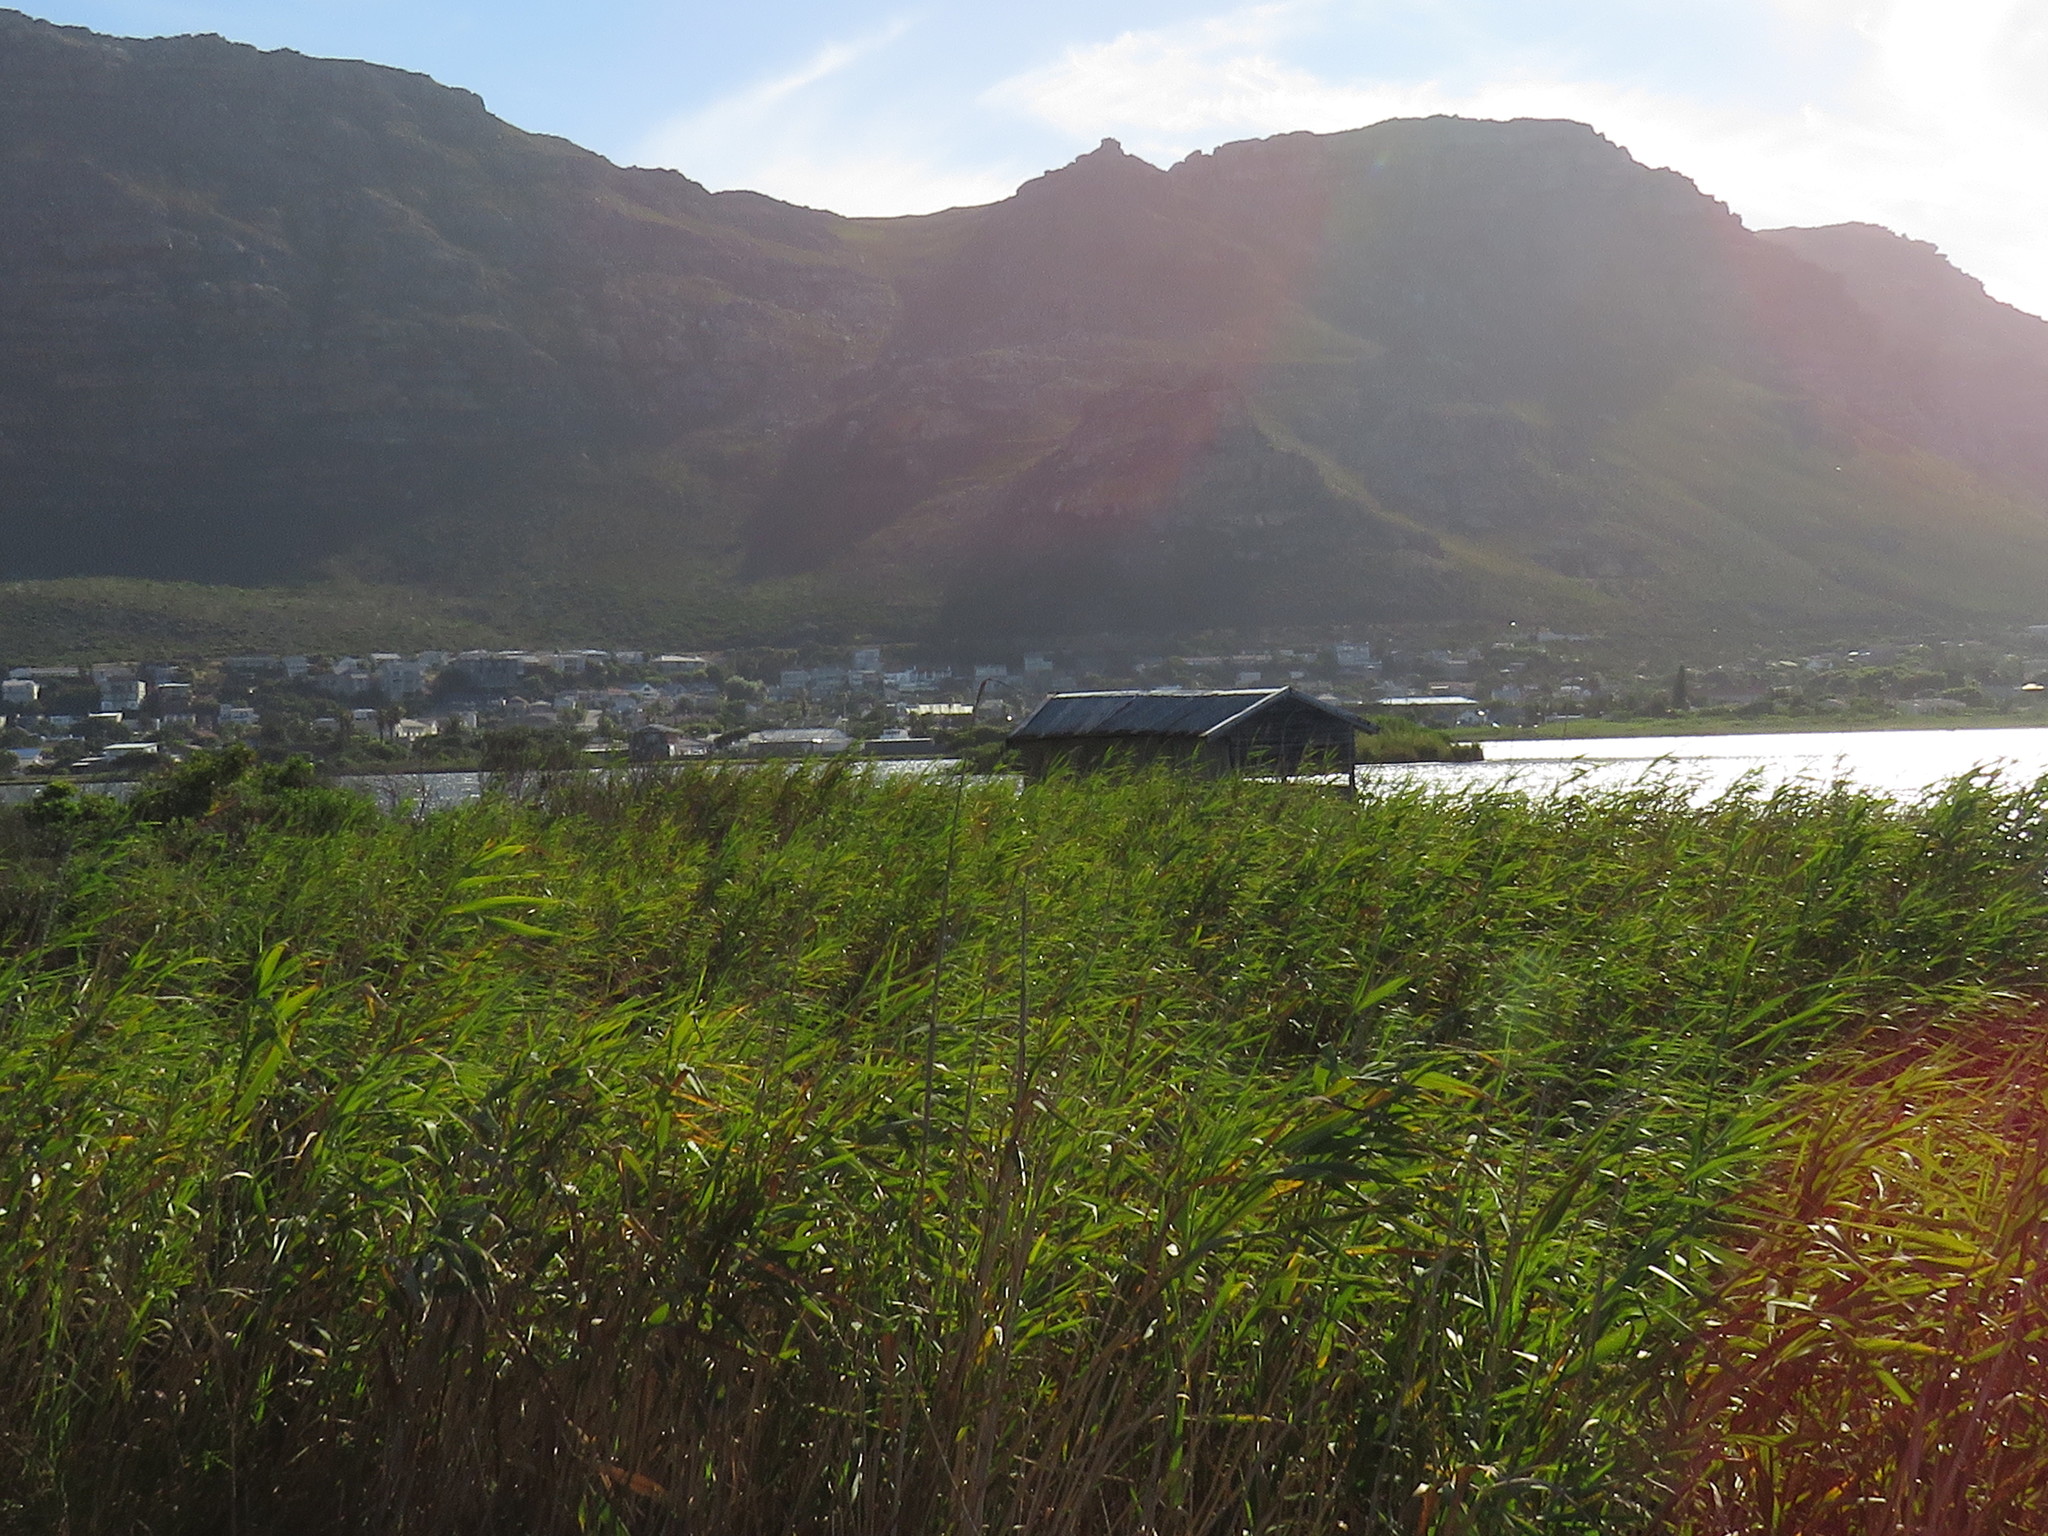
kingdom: Plantae
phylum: Tracheophyta
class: Liliopsida
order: Poales
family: Poaceae
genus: Phragmites
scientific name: Phragmites australis
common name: Common reed
